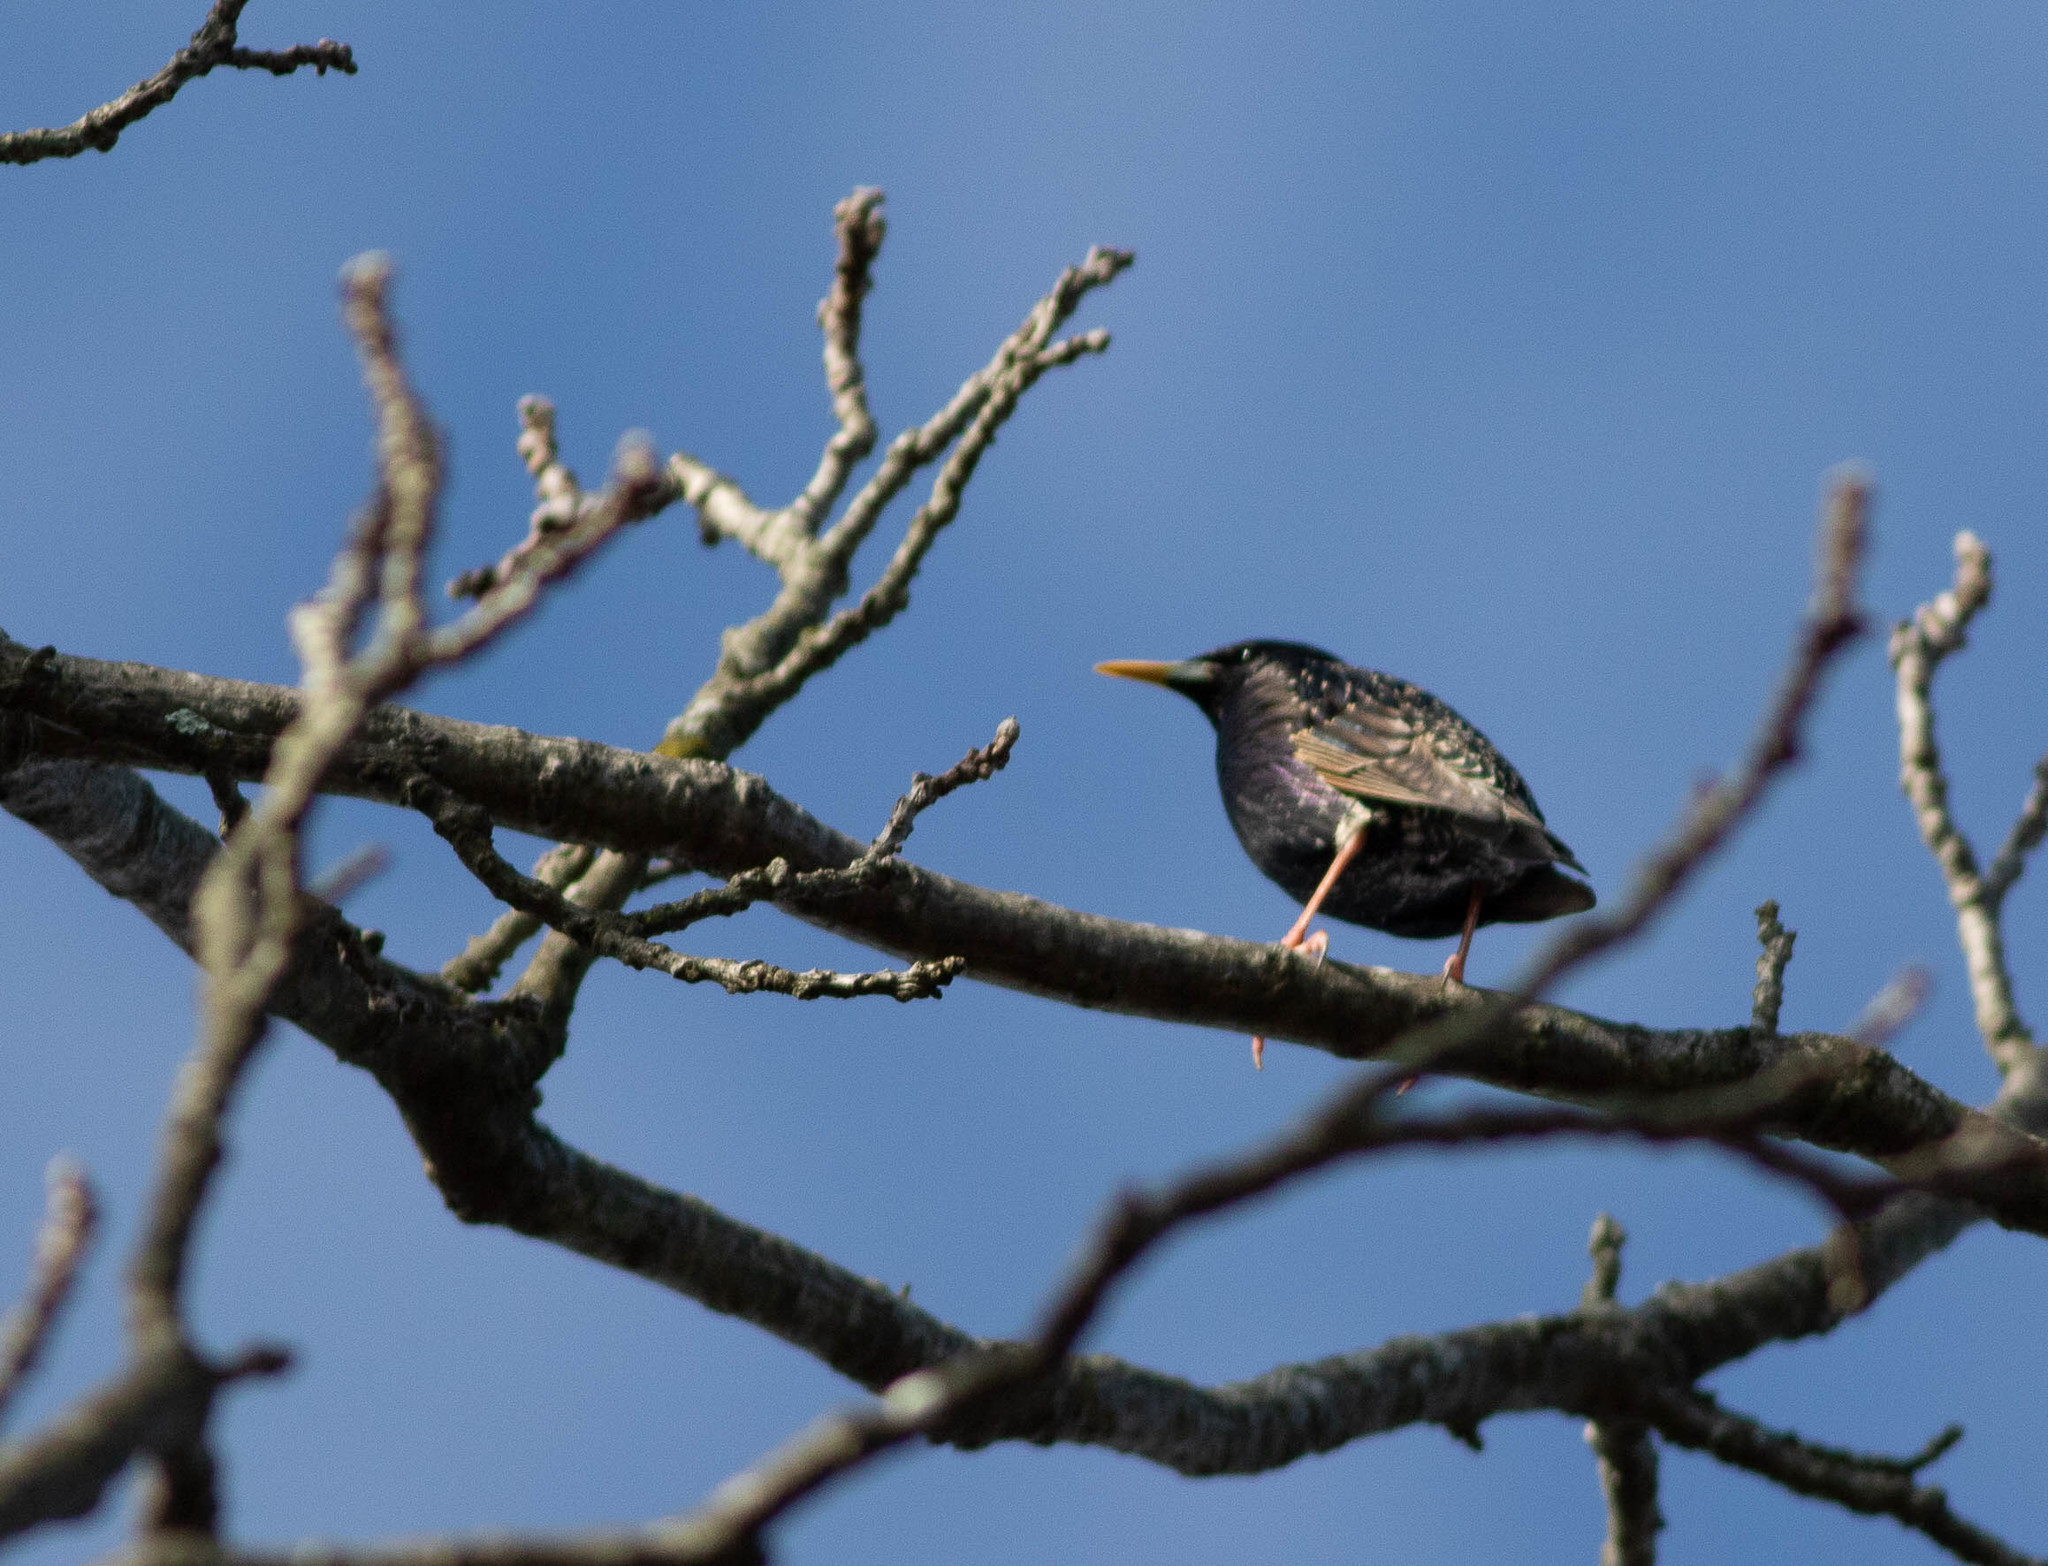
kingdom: Animalia
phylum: Chordata
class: Aves
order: Passeriformes
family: Sturnidae
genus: Sturnus
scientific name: Sturnus vulgaris
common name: Common starling
